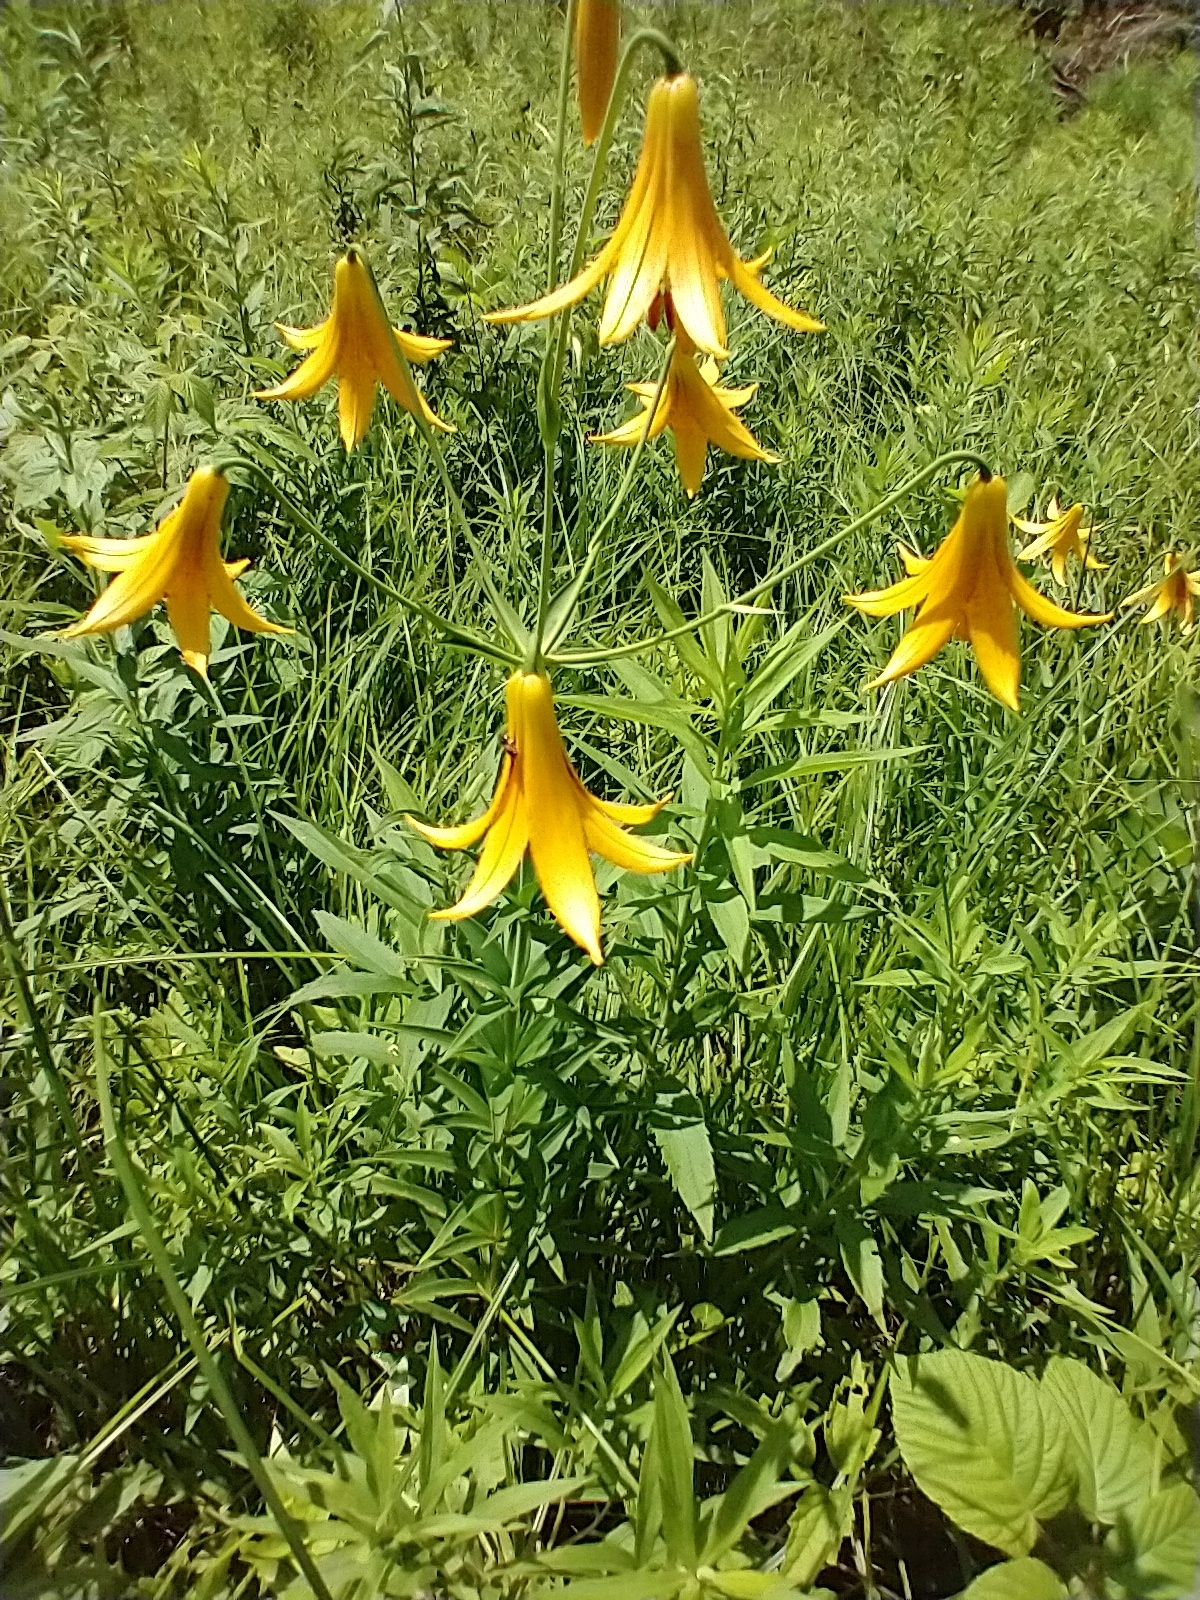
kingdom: Plantae
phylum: Tracheophyta
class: Liliopsida
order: Liliales
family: Liliaceae
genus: Lilium
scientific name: Lilium canadense
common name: Canada lily
